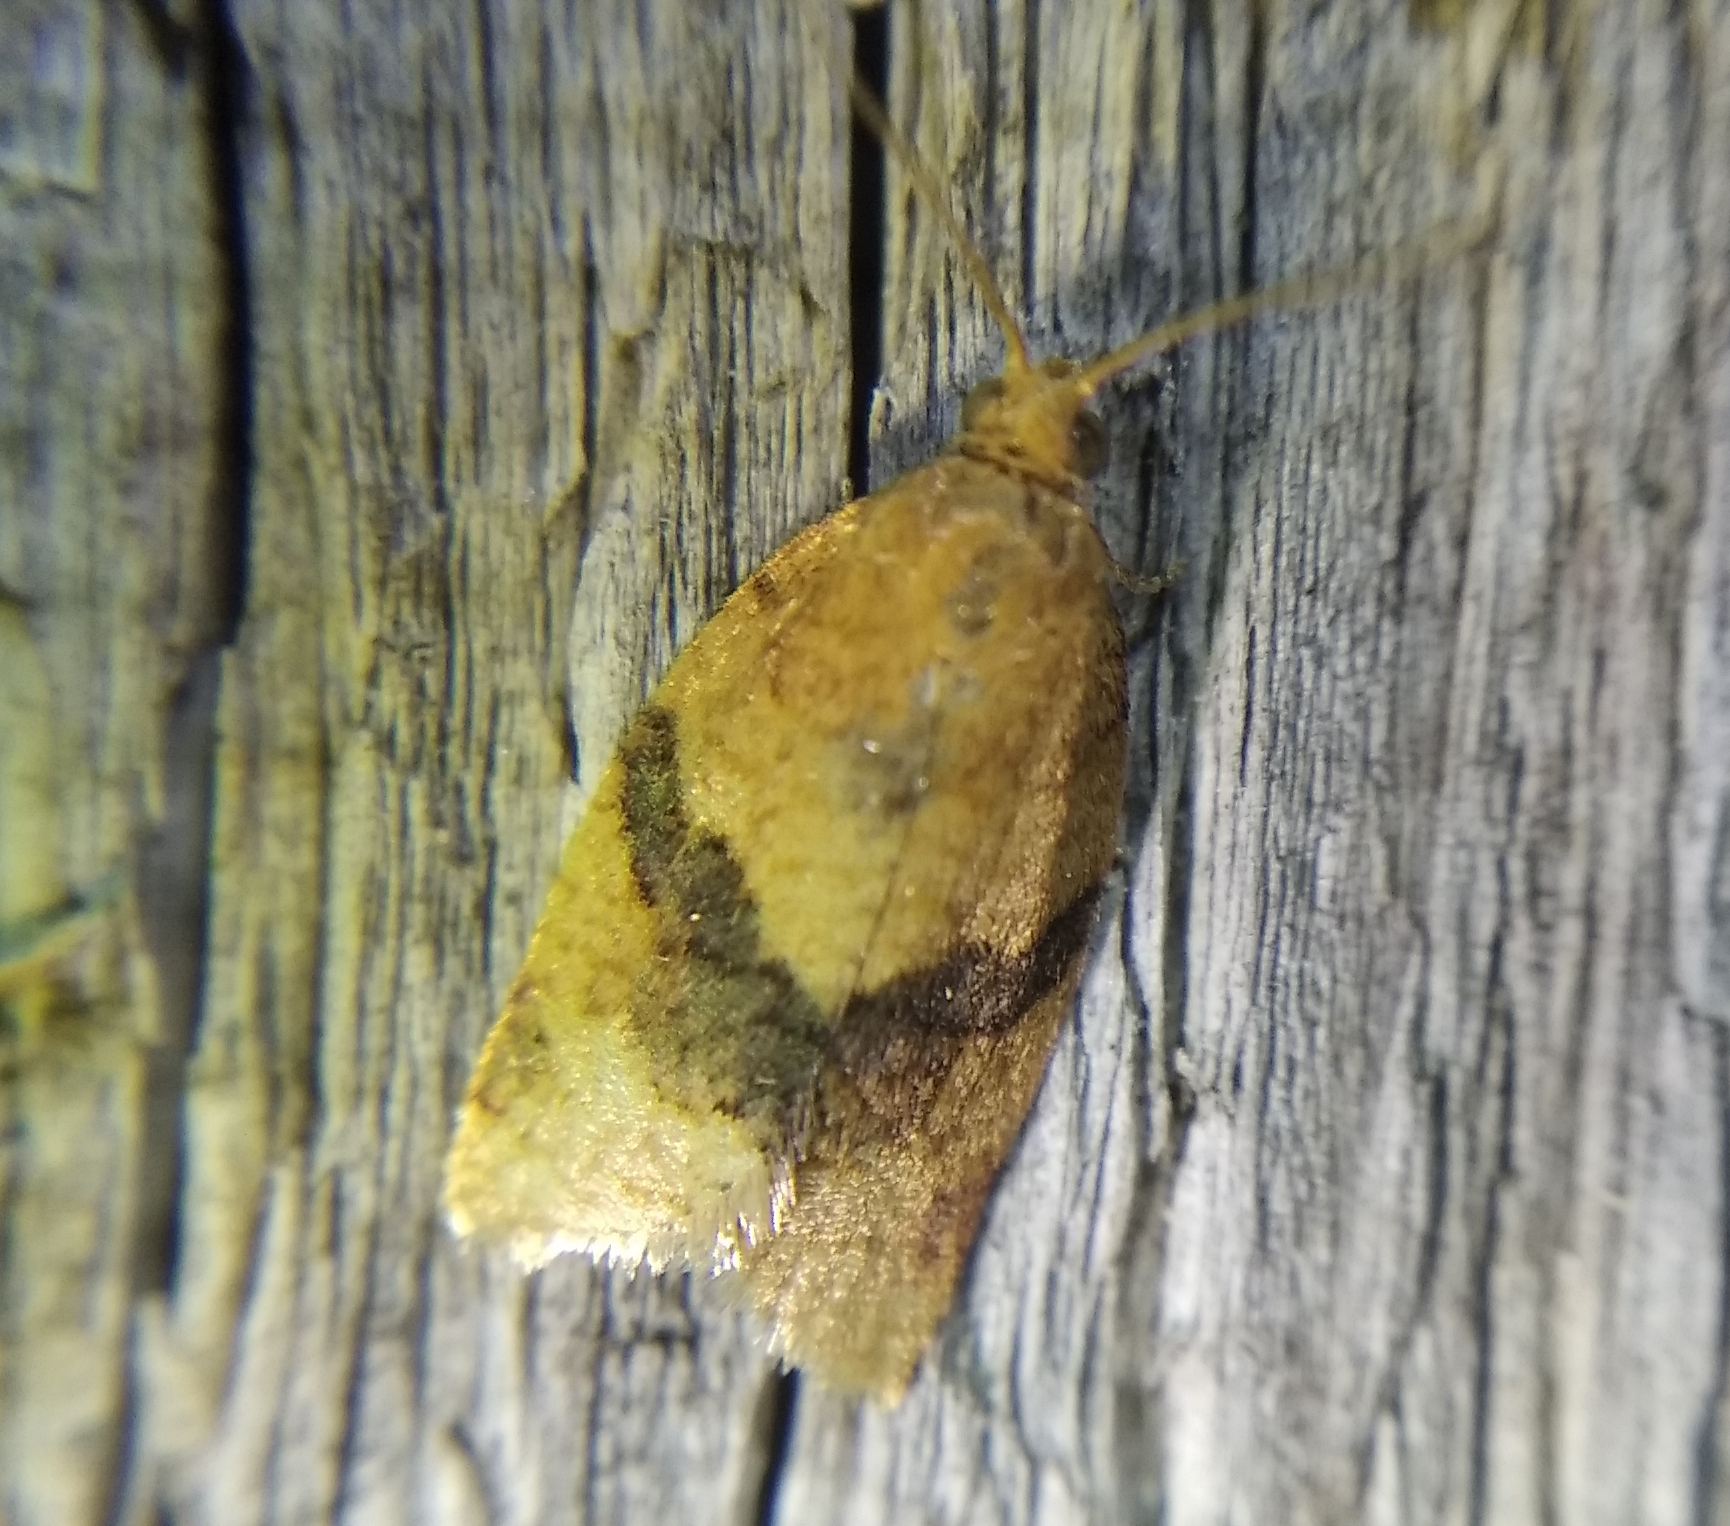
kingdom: Animalia
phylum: Arthropoda
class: Insecta
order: Lepidoptera
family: Tortricidae
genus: Clepsis
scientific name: Clepsis neglectana
